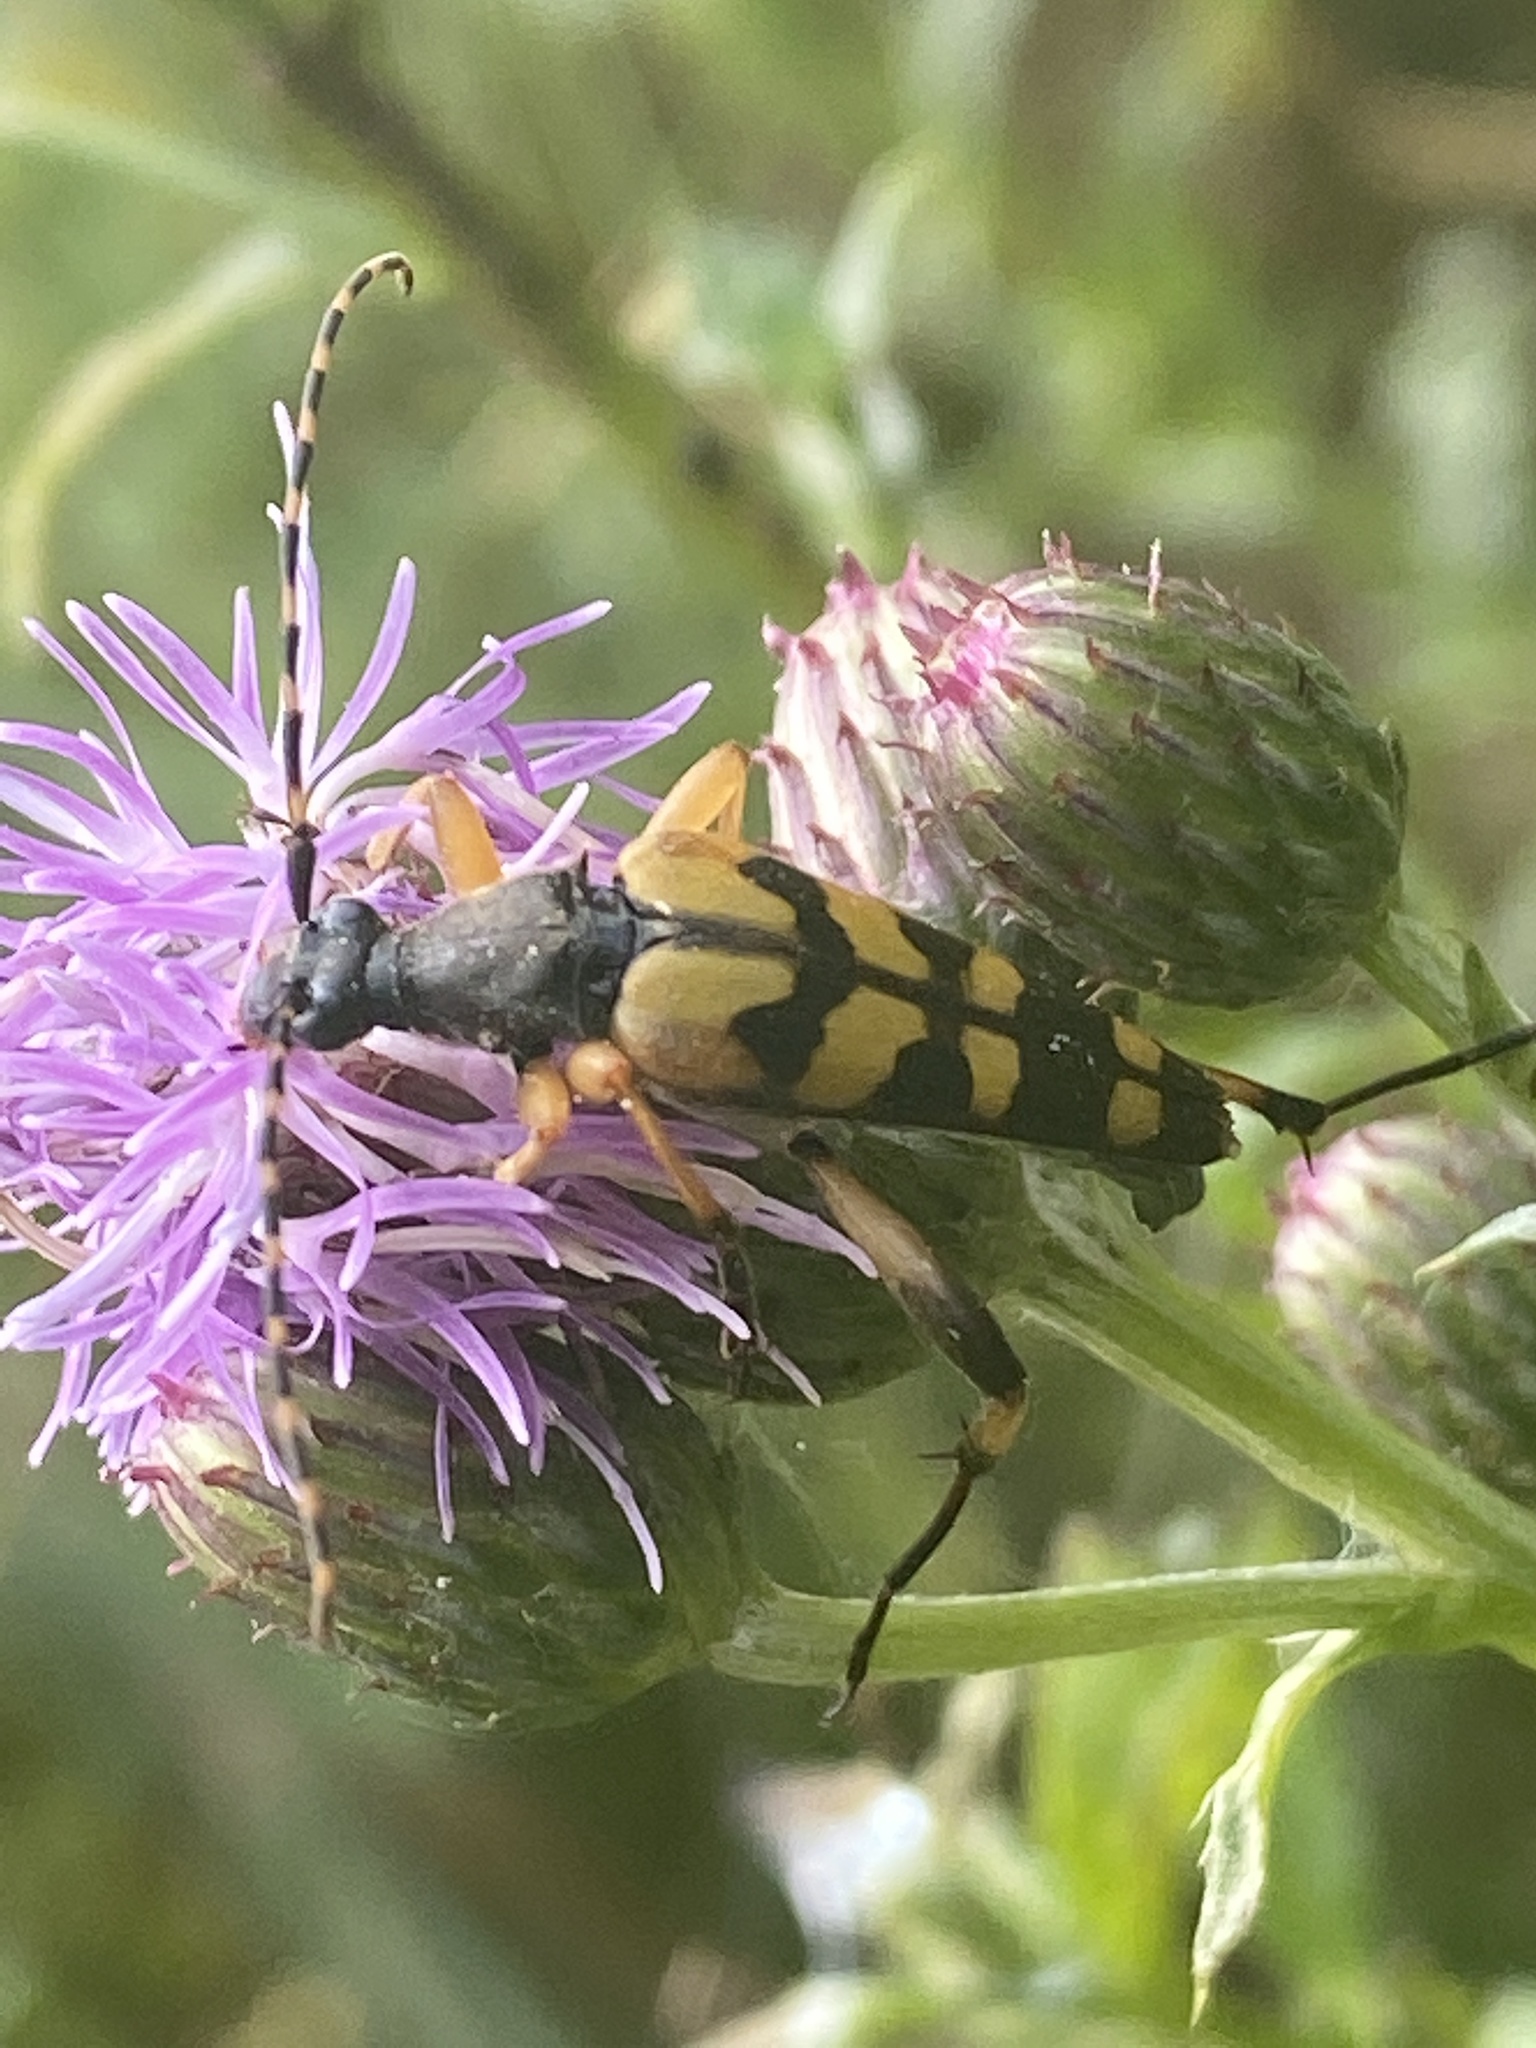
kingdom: Animalia
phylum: Arthropoda
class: Insecta
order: Coleoptera
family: Cerambycidae
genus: Rutpela
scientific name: Rutpela maculata
